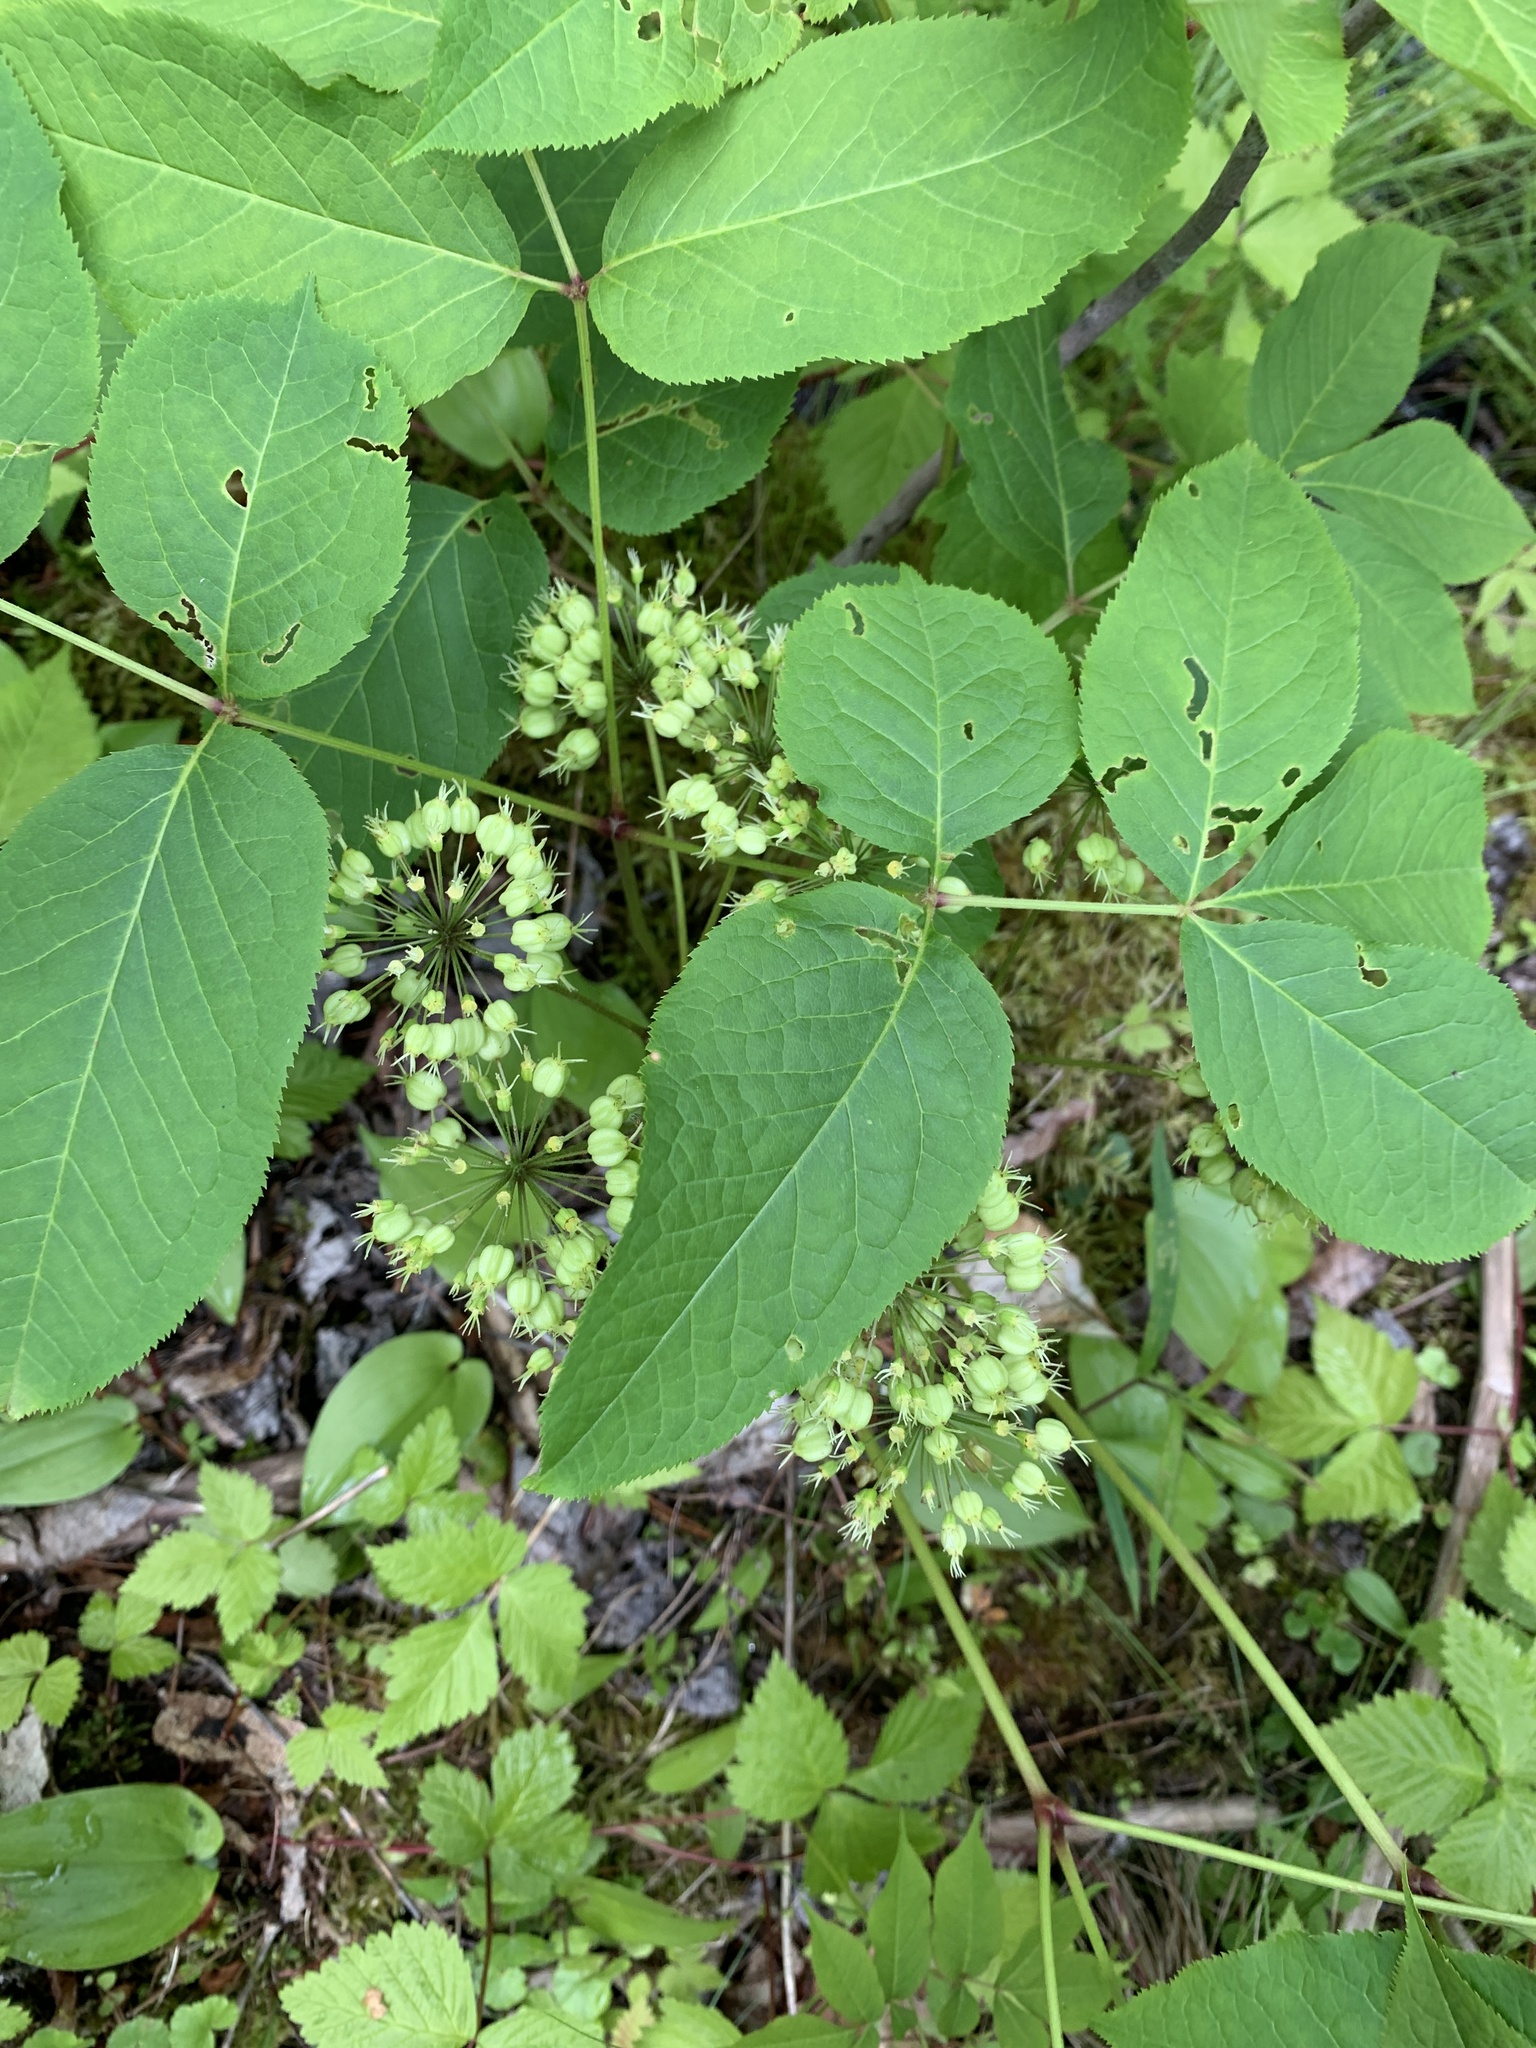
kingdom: Plantae
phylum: Tracheophyta
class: Magnoliopsida
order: Apiales
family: Araliaceae
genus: Aralia
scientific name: Aralia nudicaulis
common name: Wild sarsaparilla
